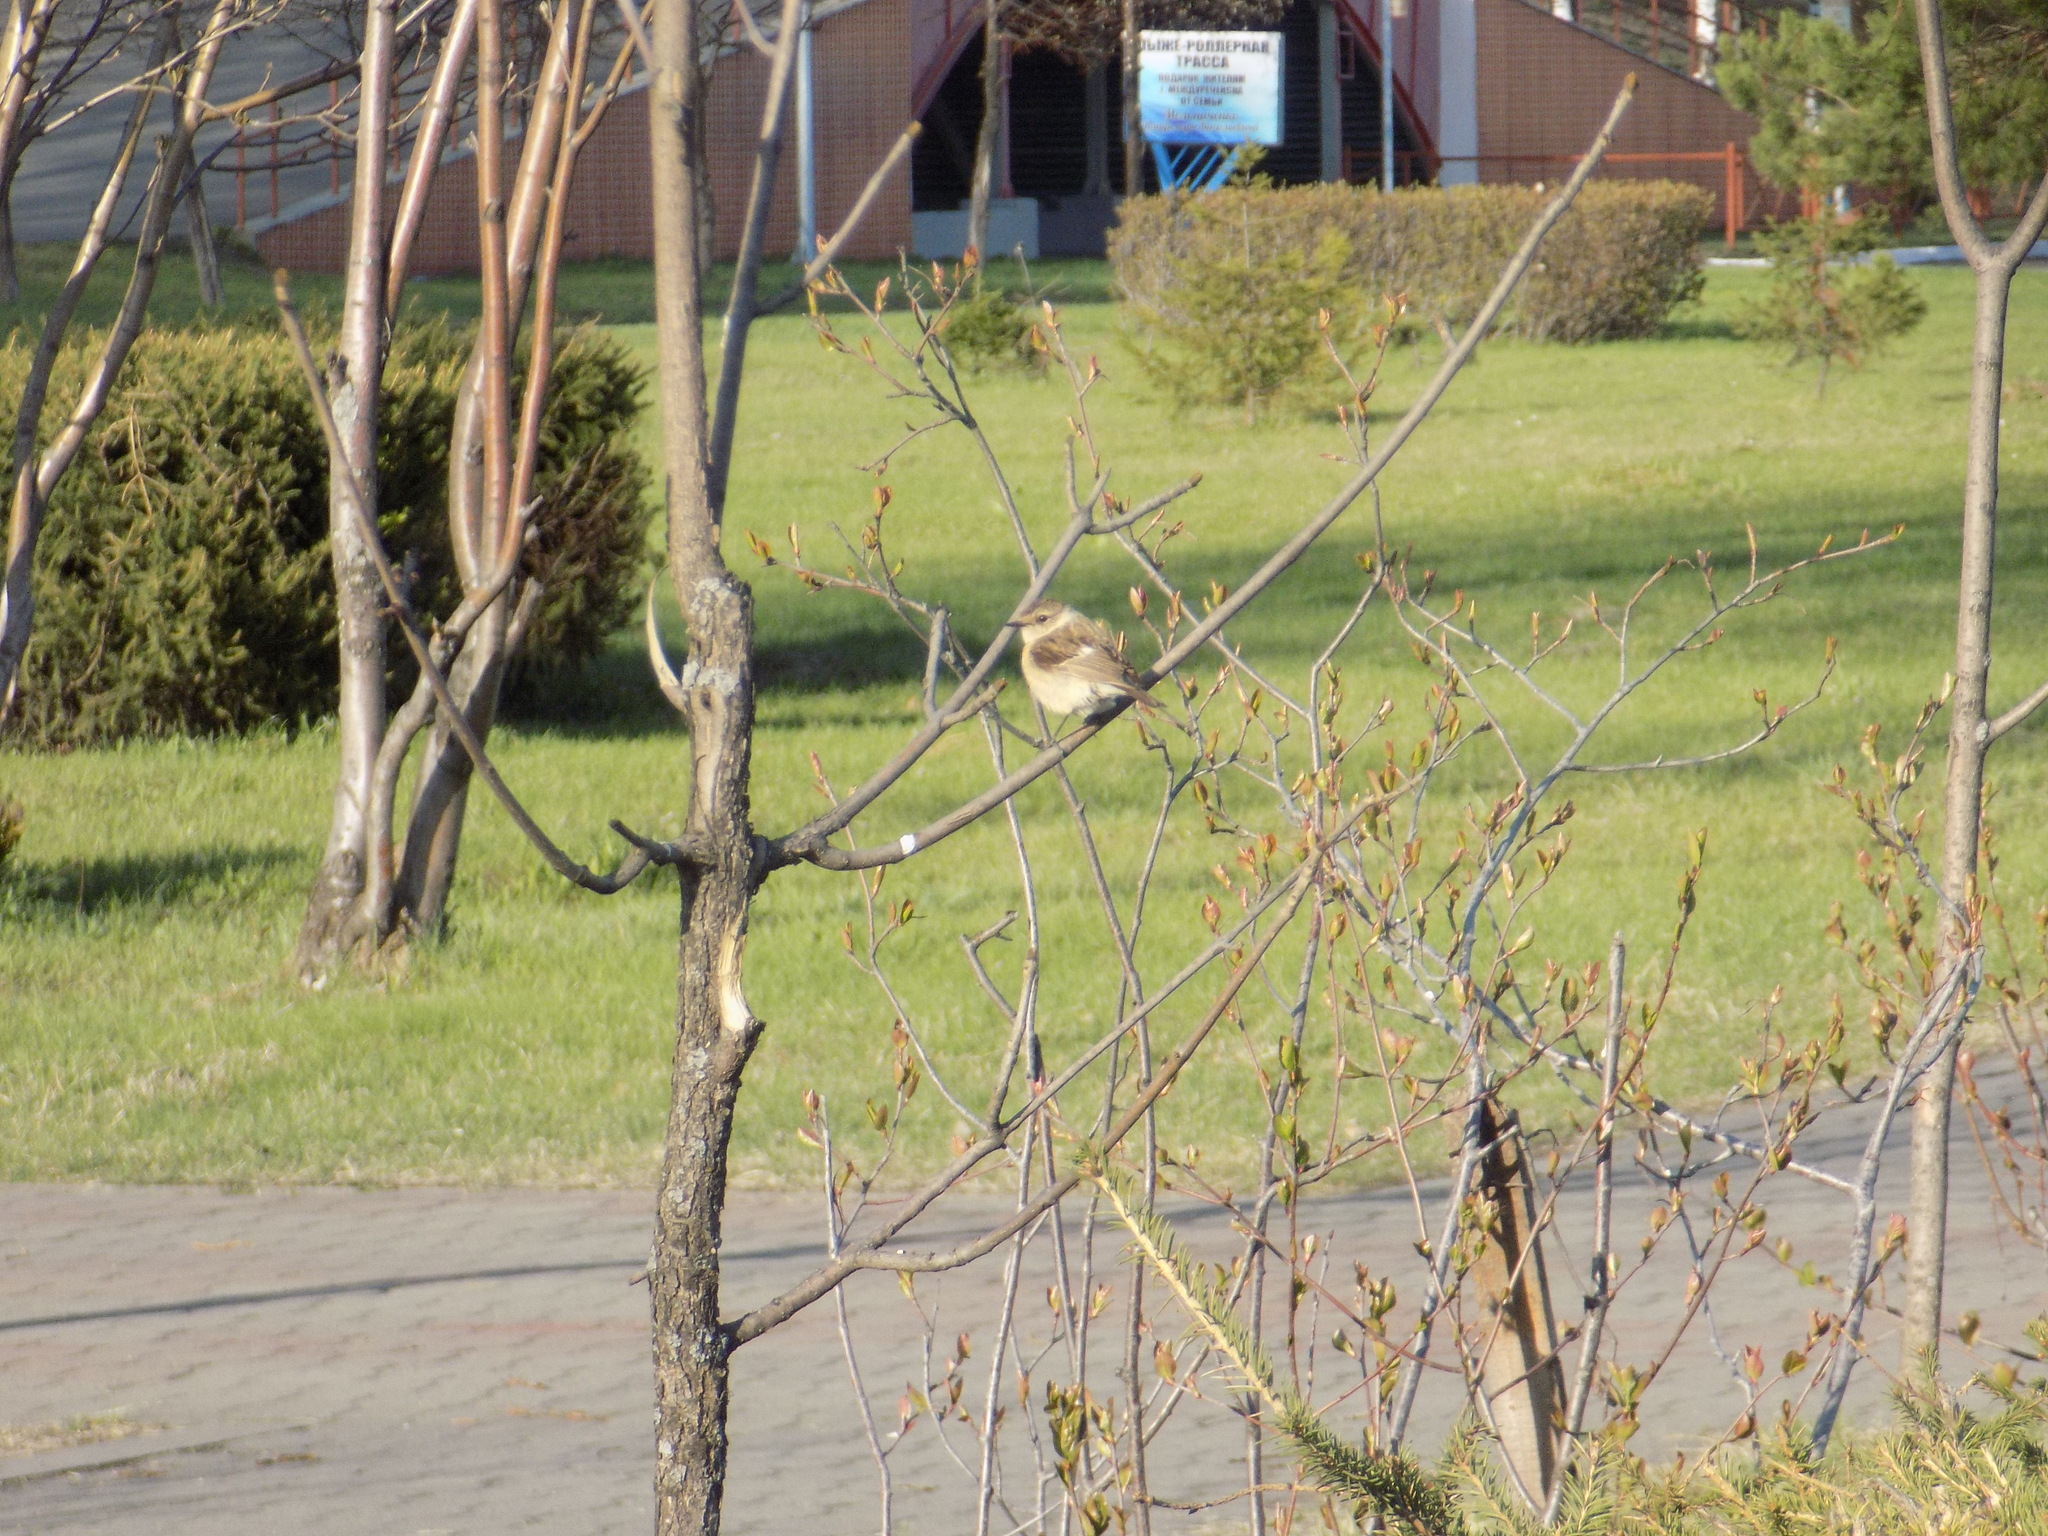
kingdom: Animalia
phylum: Chordata
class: Aves
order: Passeriformes
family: Muscicapidae
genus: Saxicola
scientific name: Saxicola maurus
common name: Siberian stonechat
